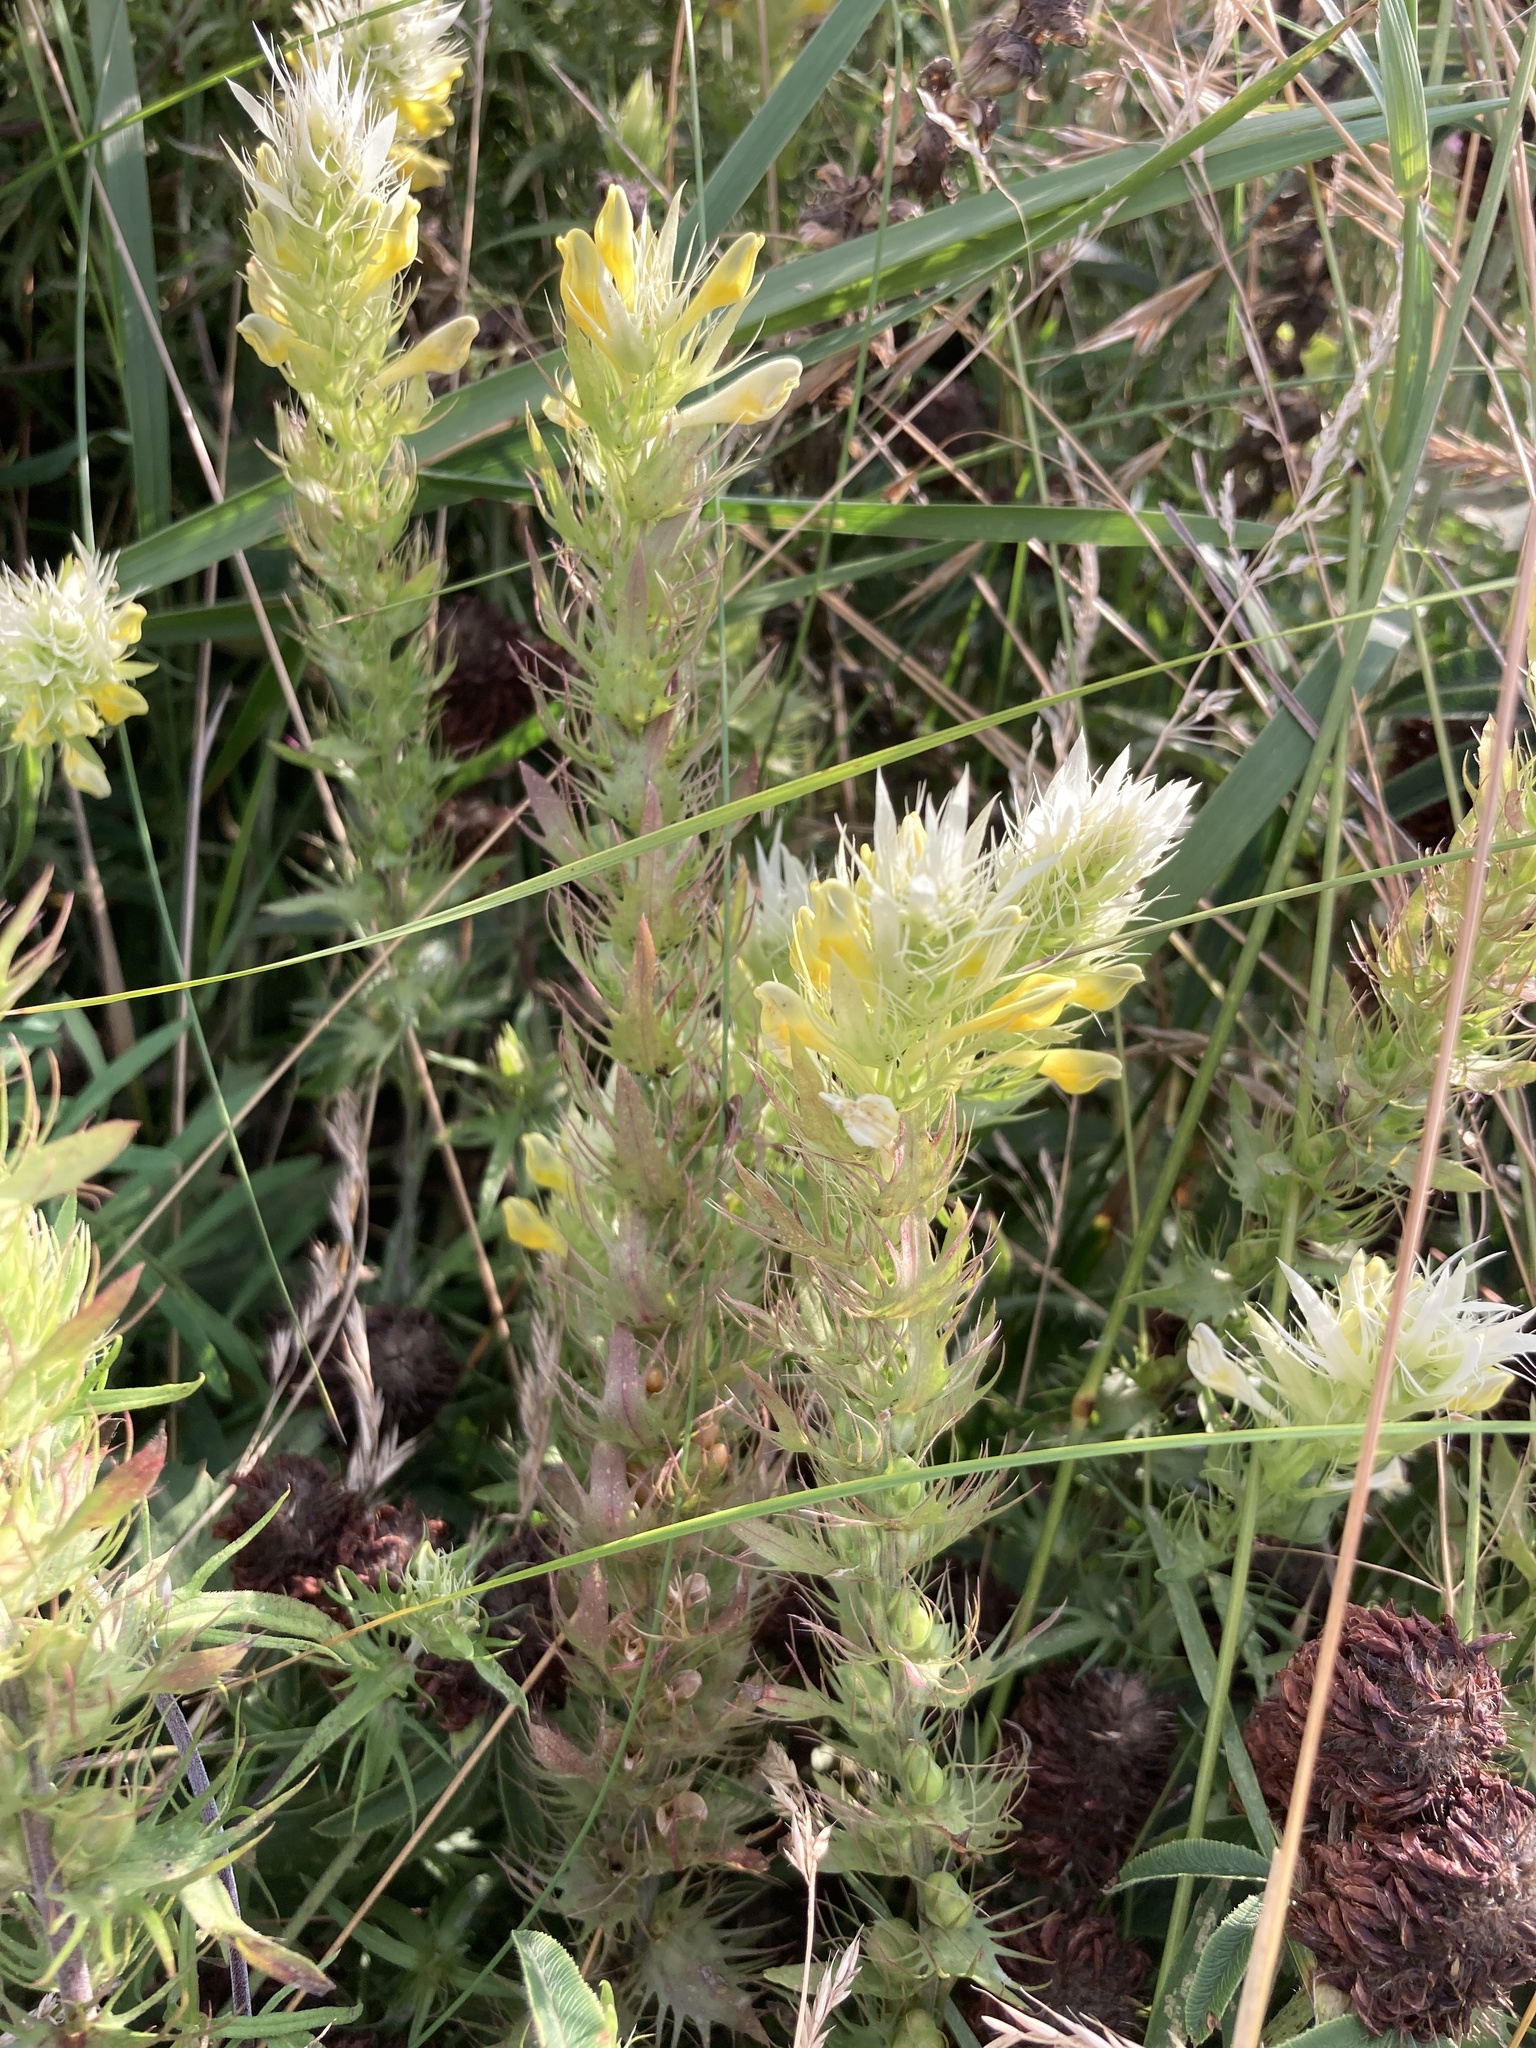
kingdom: Plantae
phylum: Tracheophyta
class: Magnoliopsida
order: Lamiales
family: Orobanchaceae
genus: Melampyrum
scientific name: Melampyrum arvense
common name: Field cow-wheat
